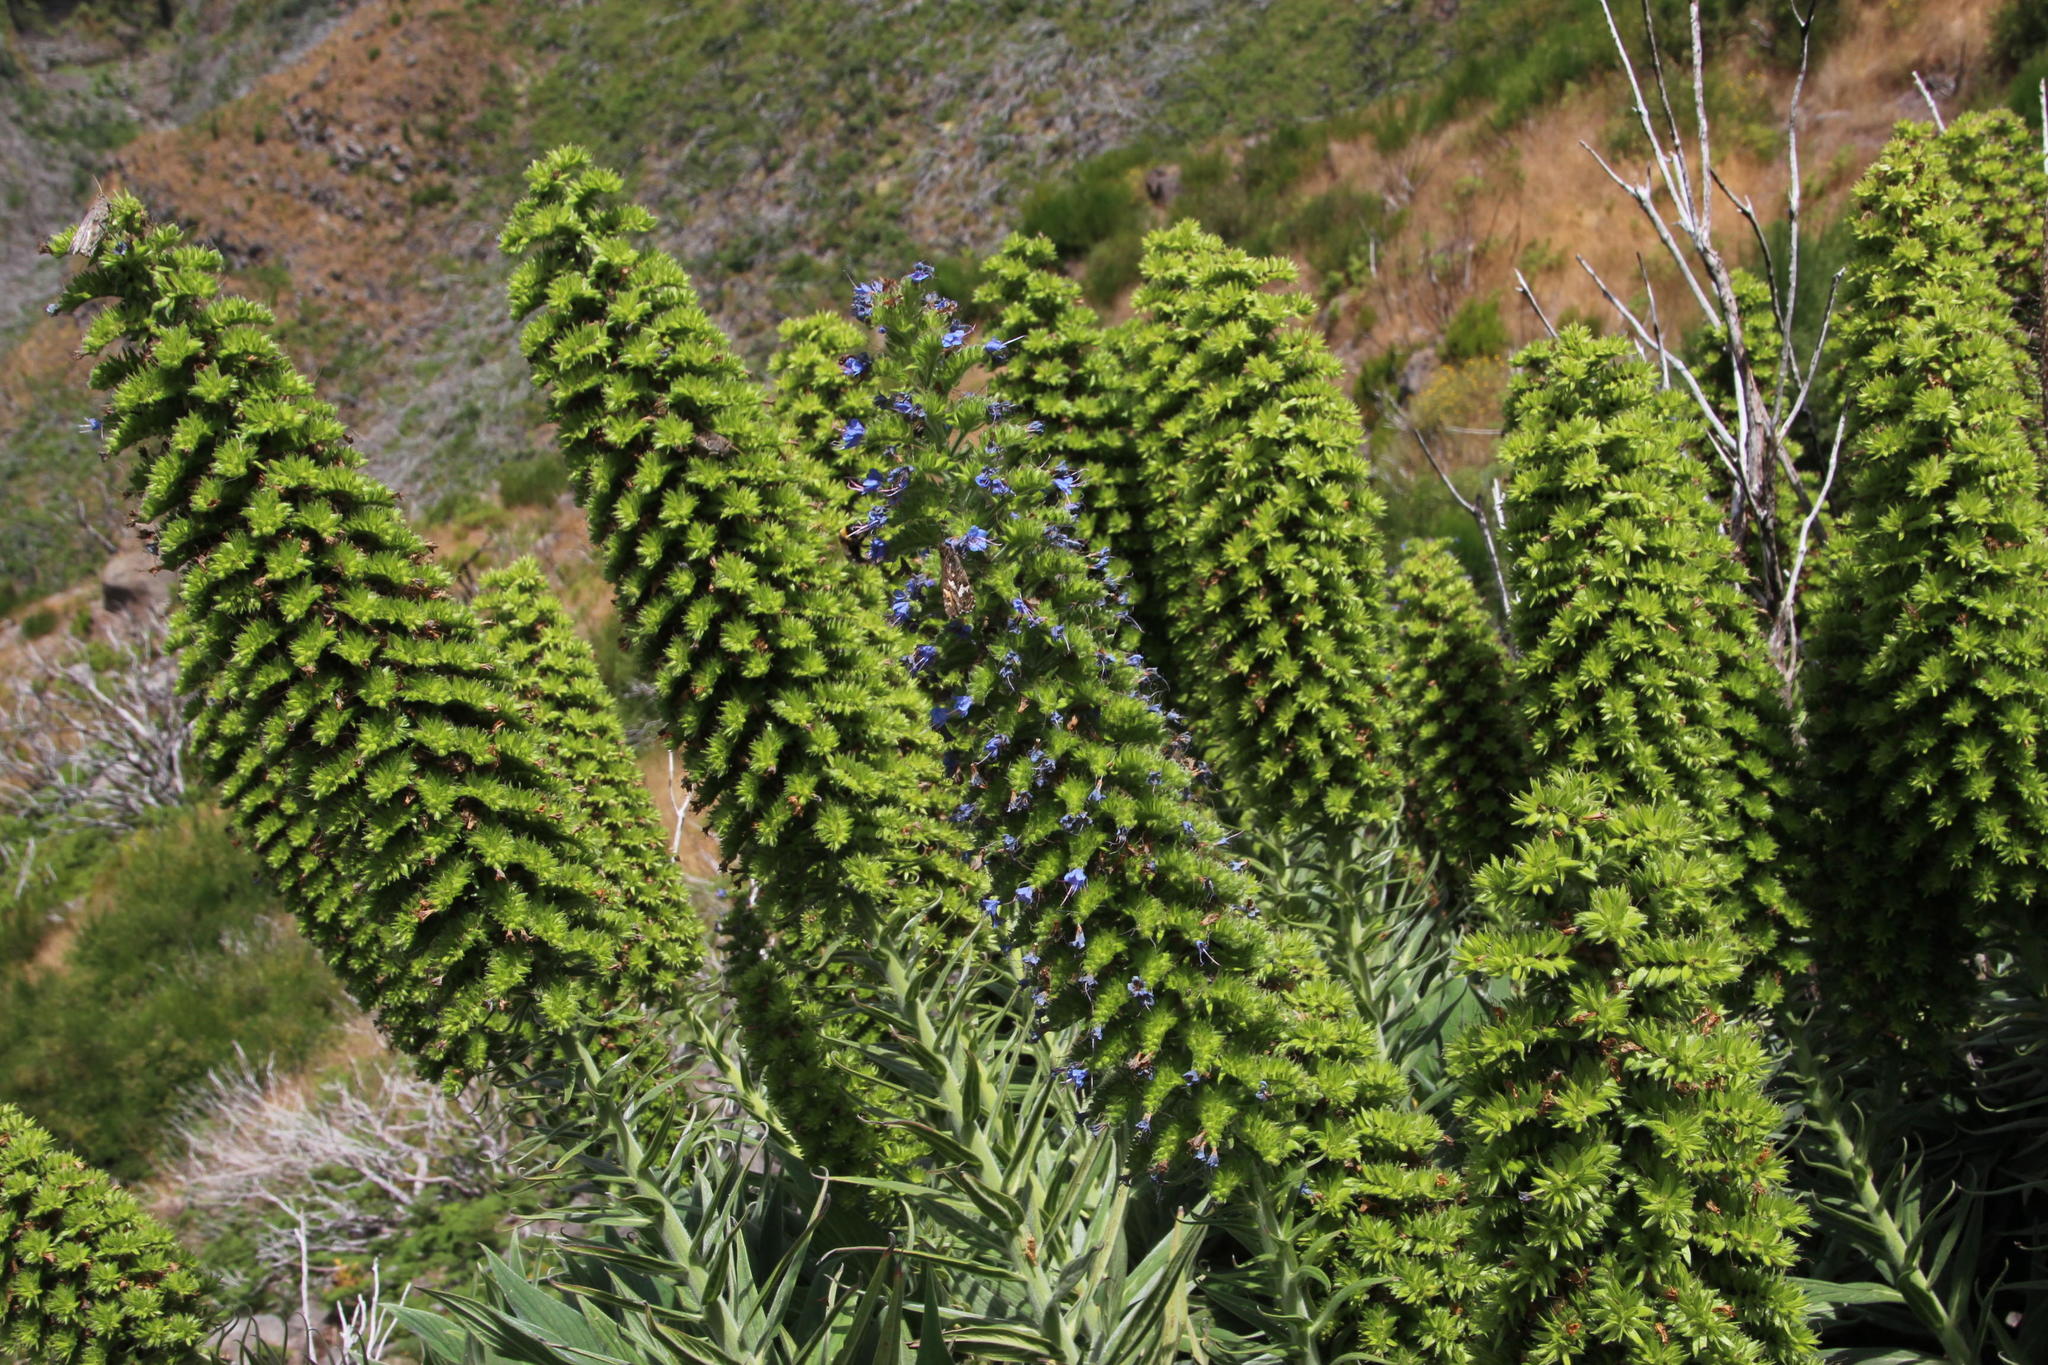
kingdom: Plantae
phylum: Tracheophyta
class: Magnoliopsida
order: Boraginales
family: Boraginaceae
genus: Echium
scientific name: Echium candicans
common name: Pride of madeira
